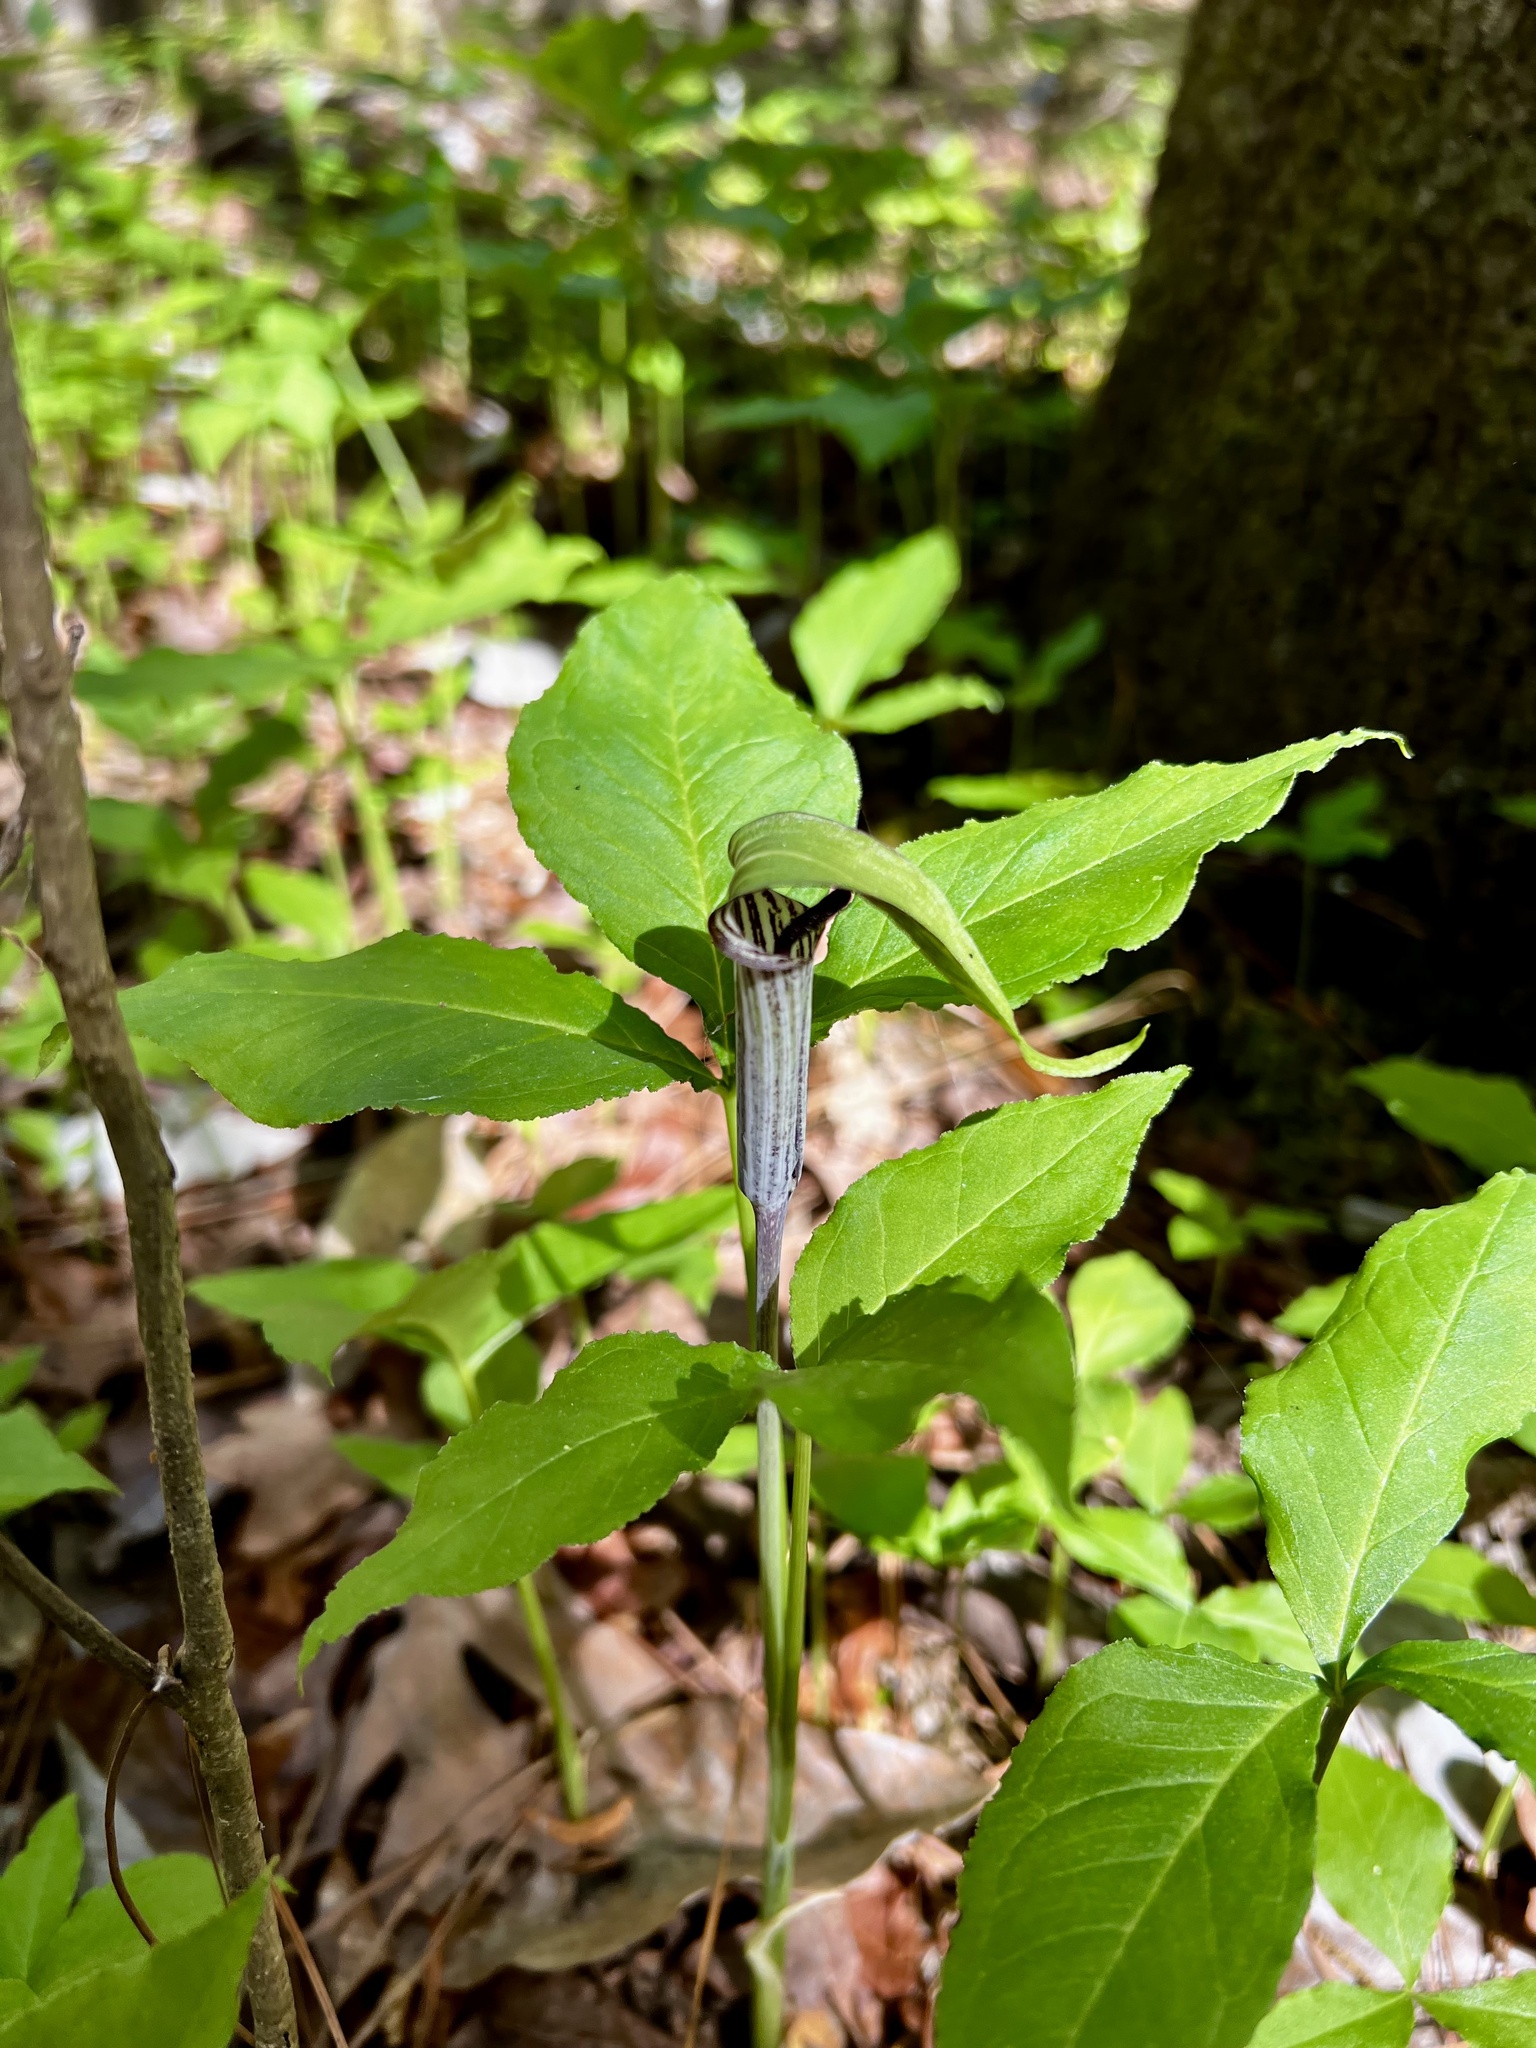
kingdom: Plantae
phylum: Tracheophyta
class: Liliopsida
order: Alismatales
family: Araceae
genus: Arisaema
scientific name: Arisaema triphyllum
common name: Jack-in-the-pulpit
